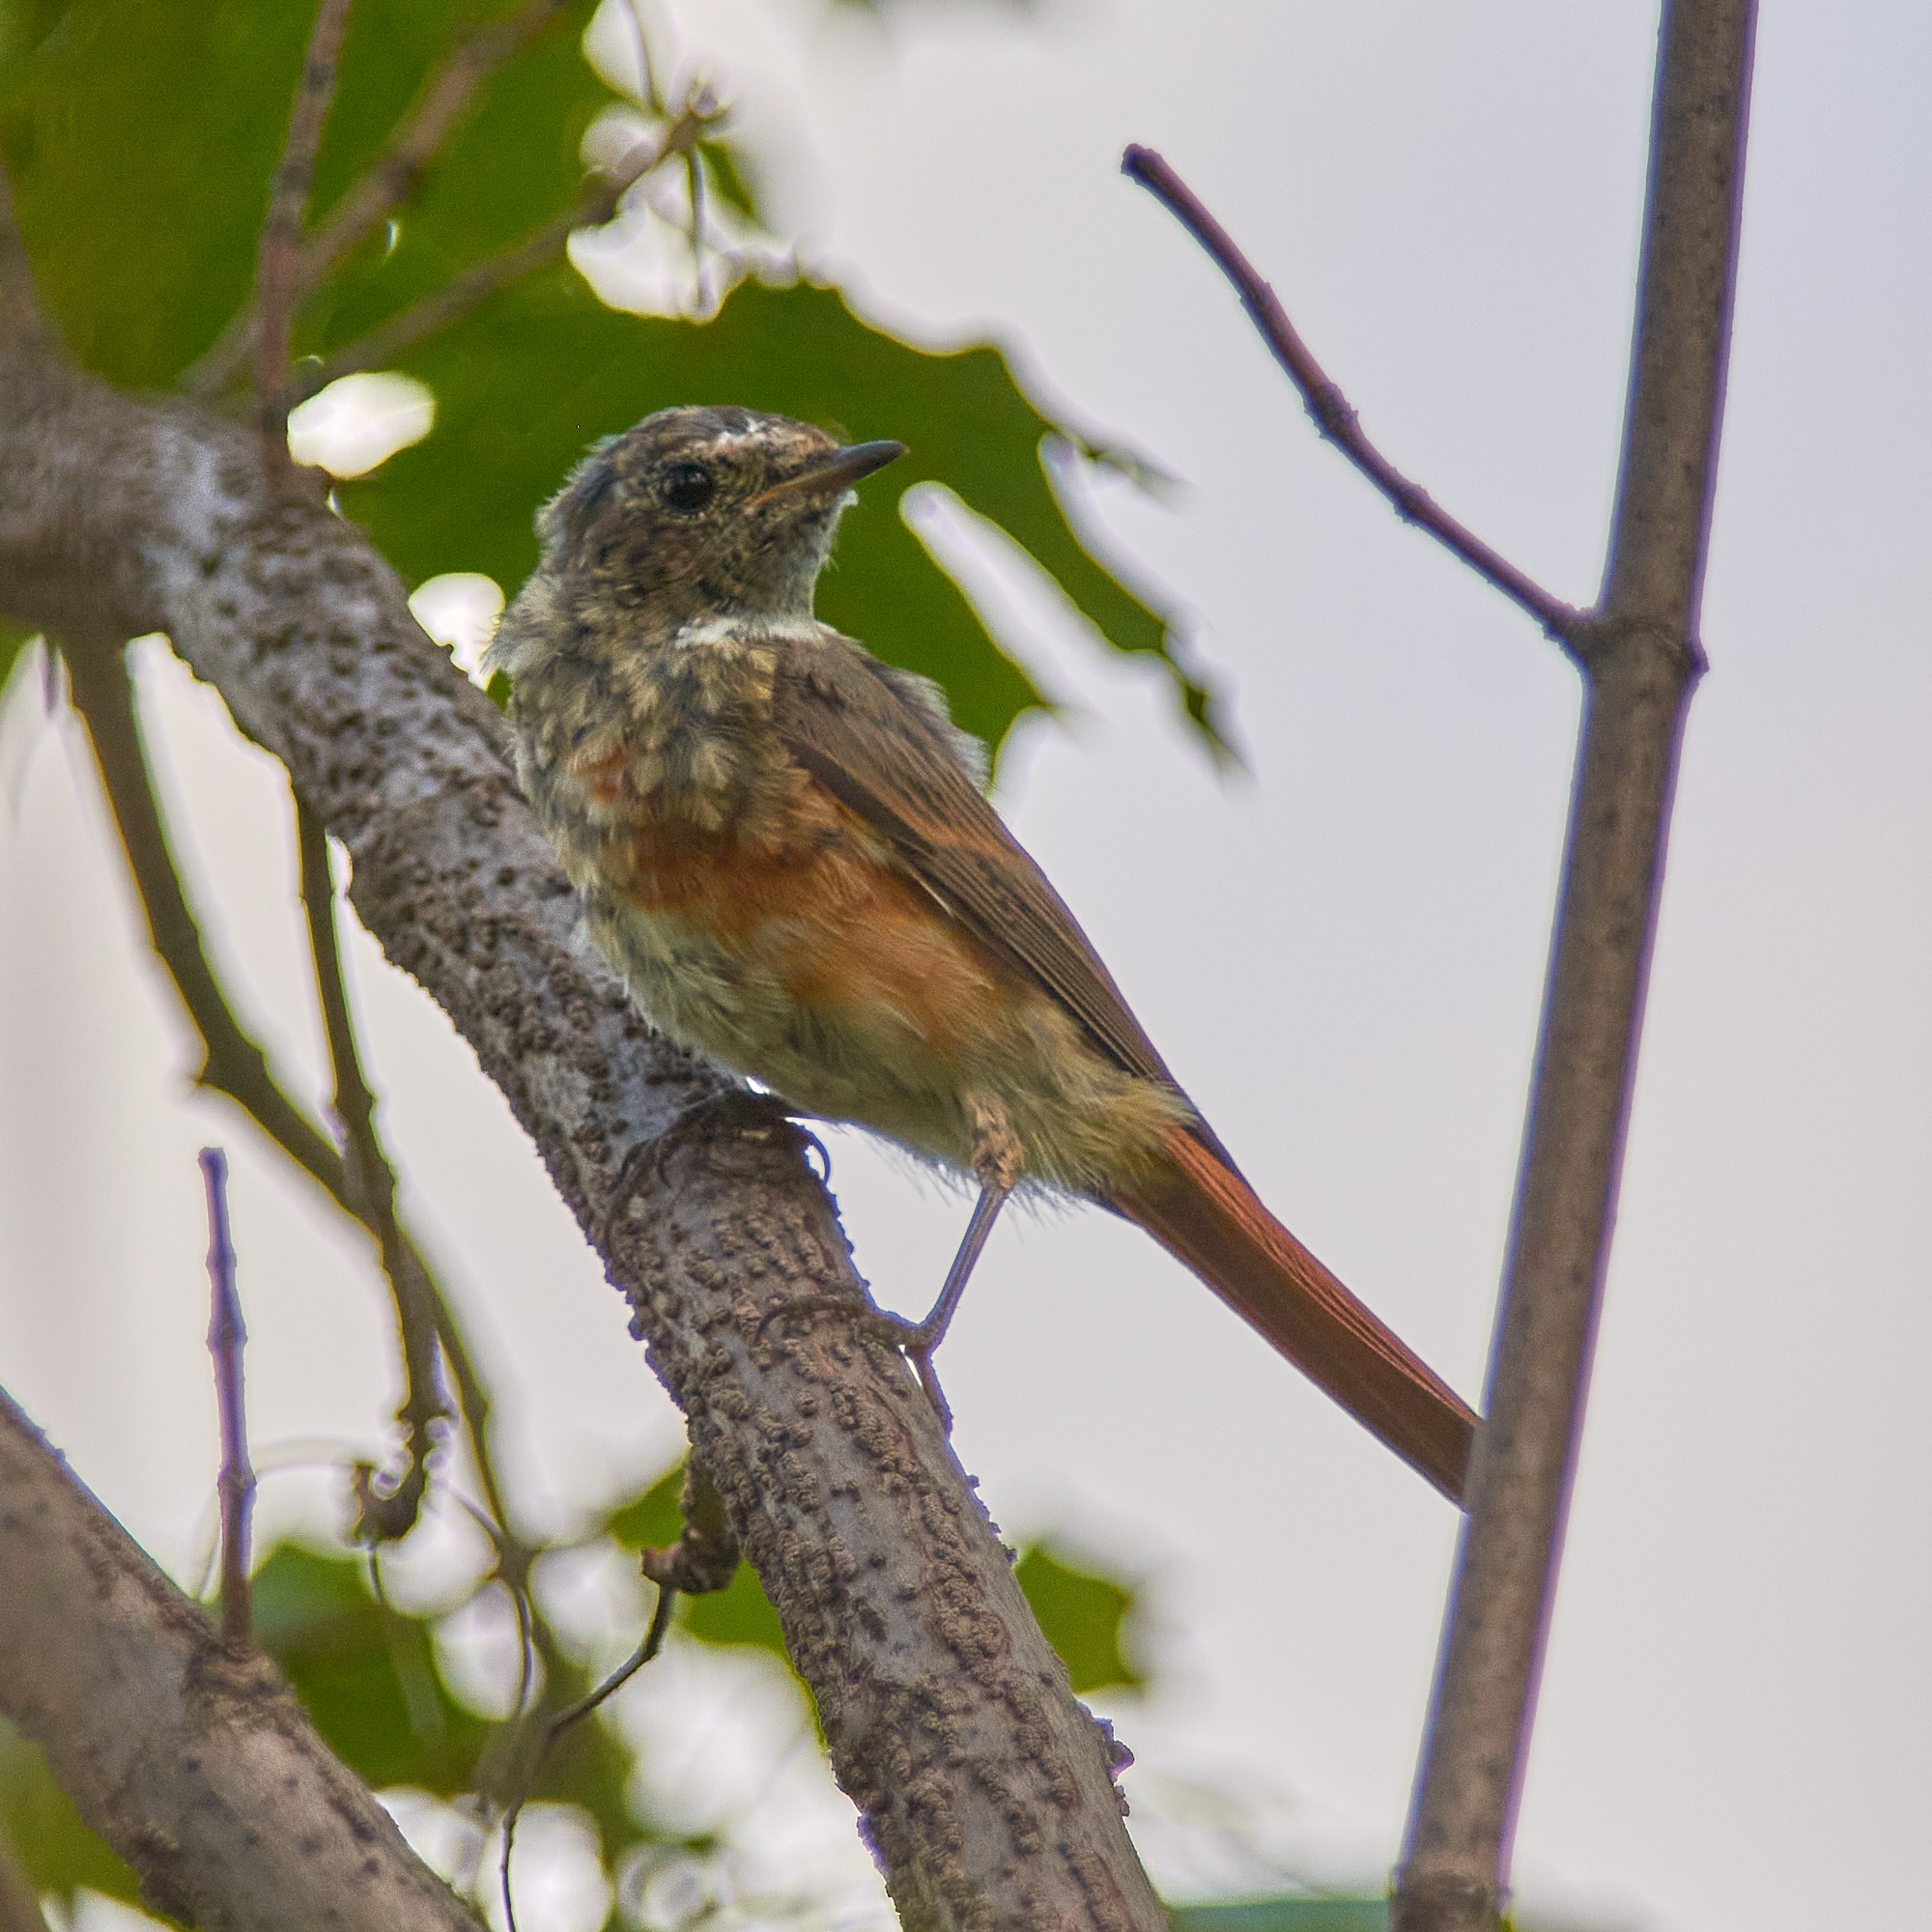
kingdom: Animalia
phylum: Chordata
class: Aves
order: Passeriformes
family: Muscicapidae
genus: Phoenicurus
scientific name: Phoenicurus phoenicurus
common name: Common redstart
